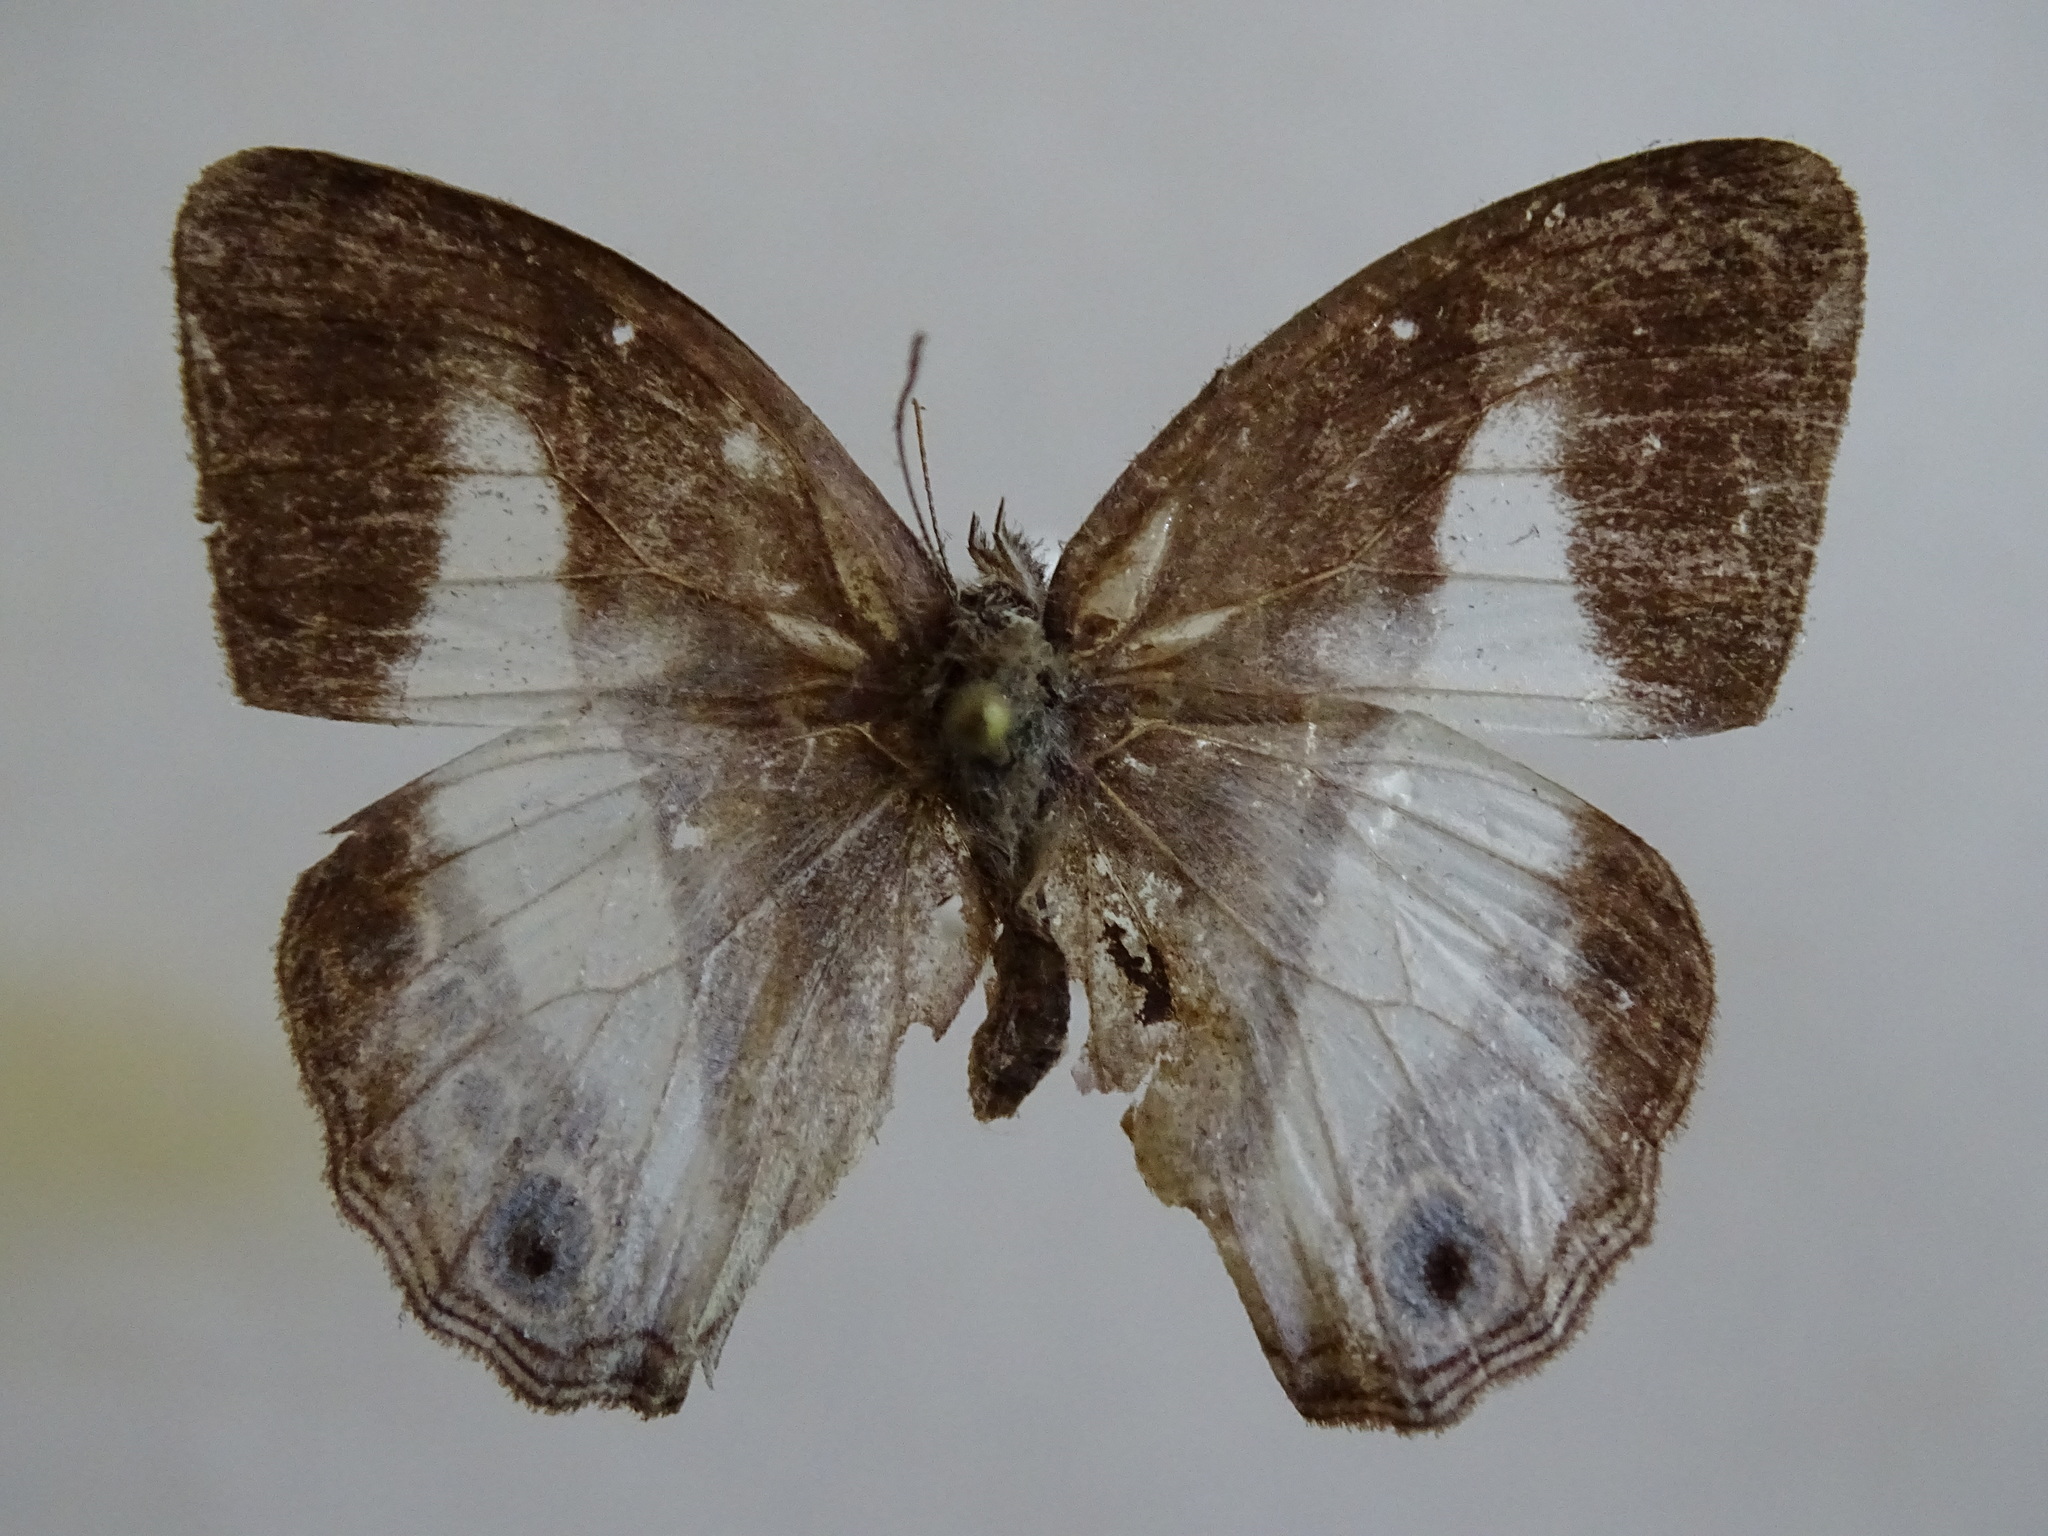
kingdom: Animalia
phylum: Arthropoda
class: Insecta
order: Lepidoptera
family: Nymphalidae
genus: Pareuptychia
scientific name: Pareuptychia metaleuca
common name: White-banded satyr
